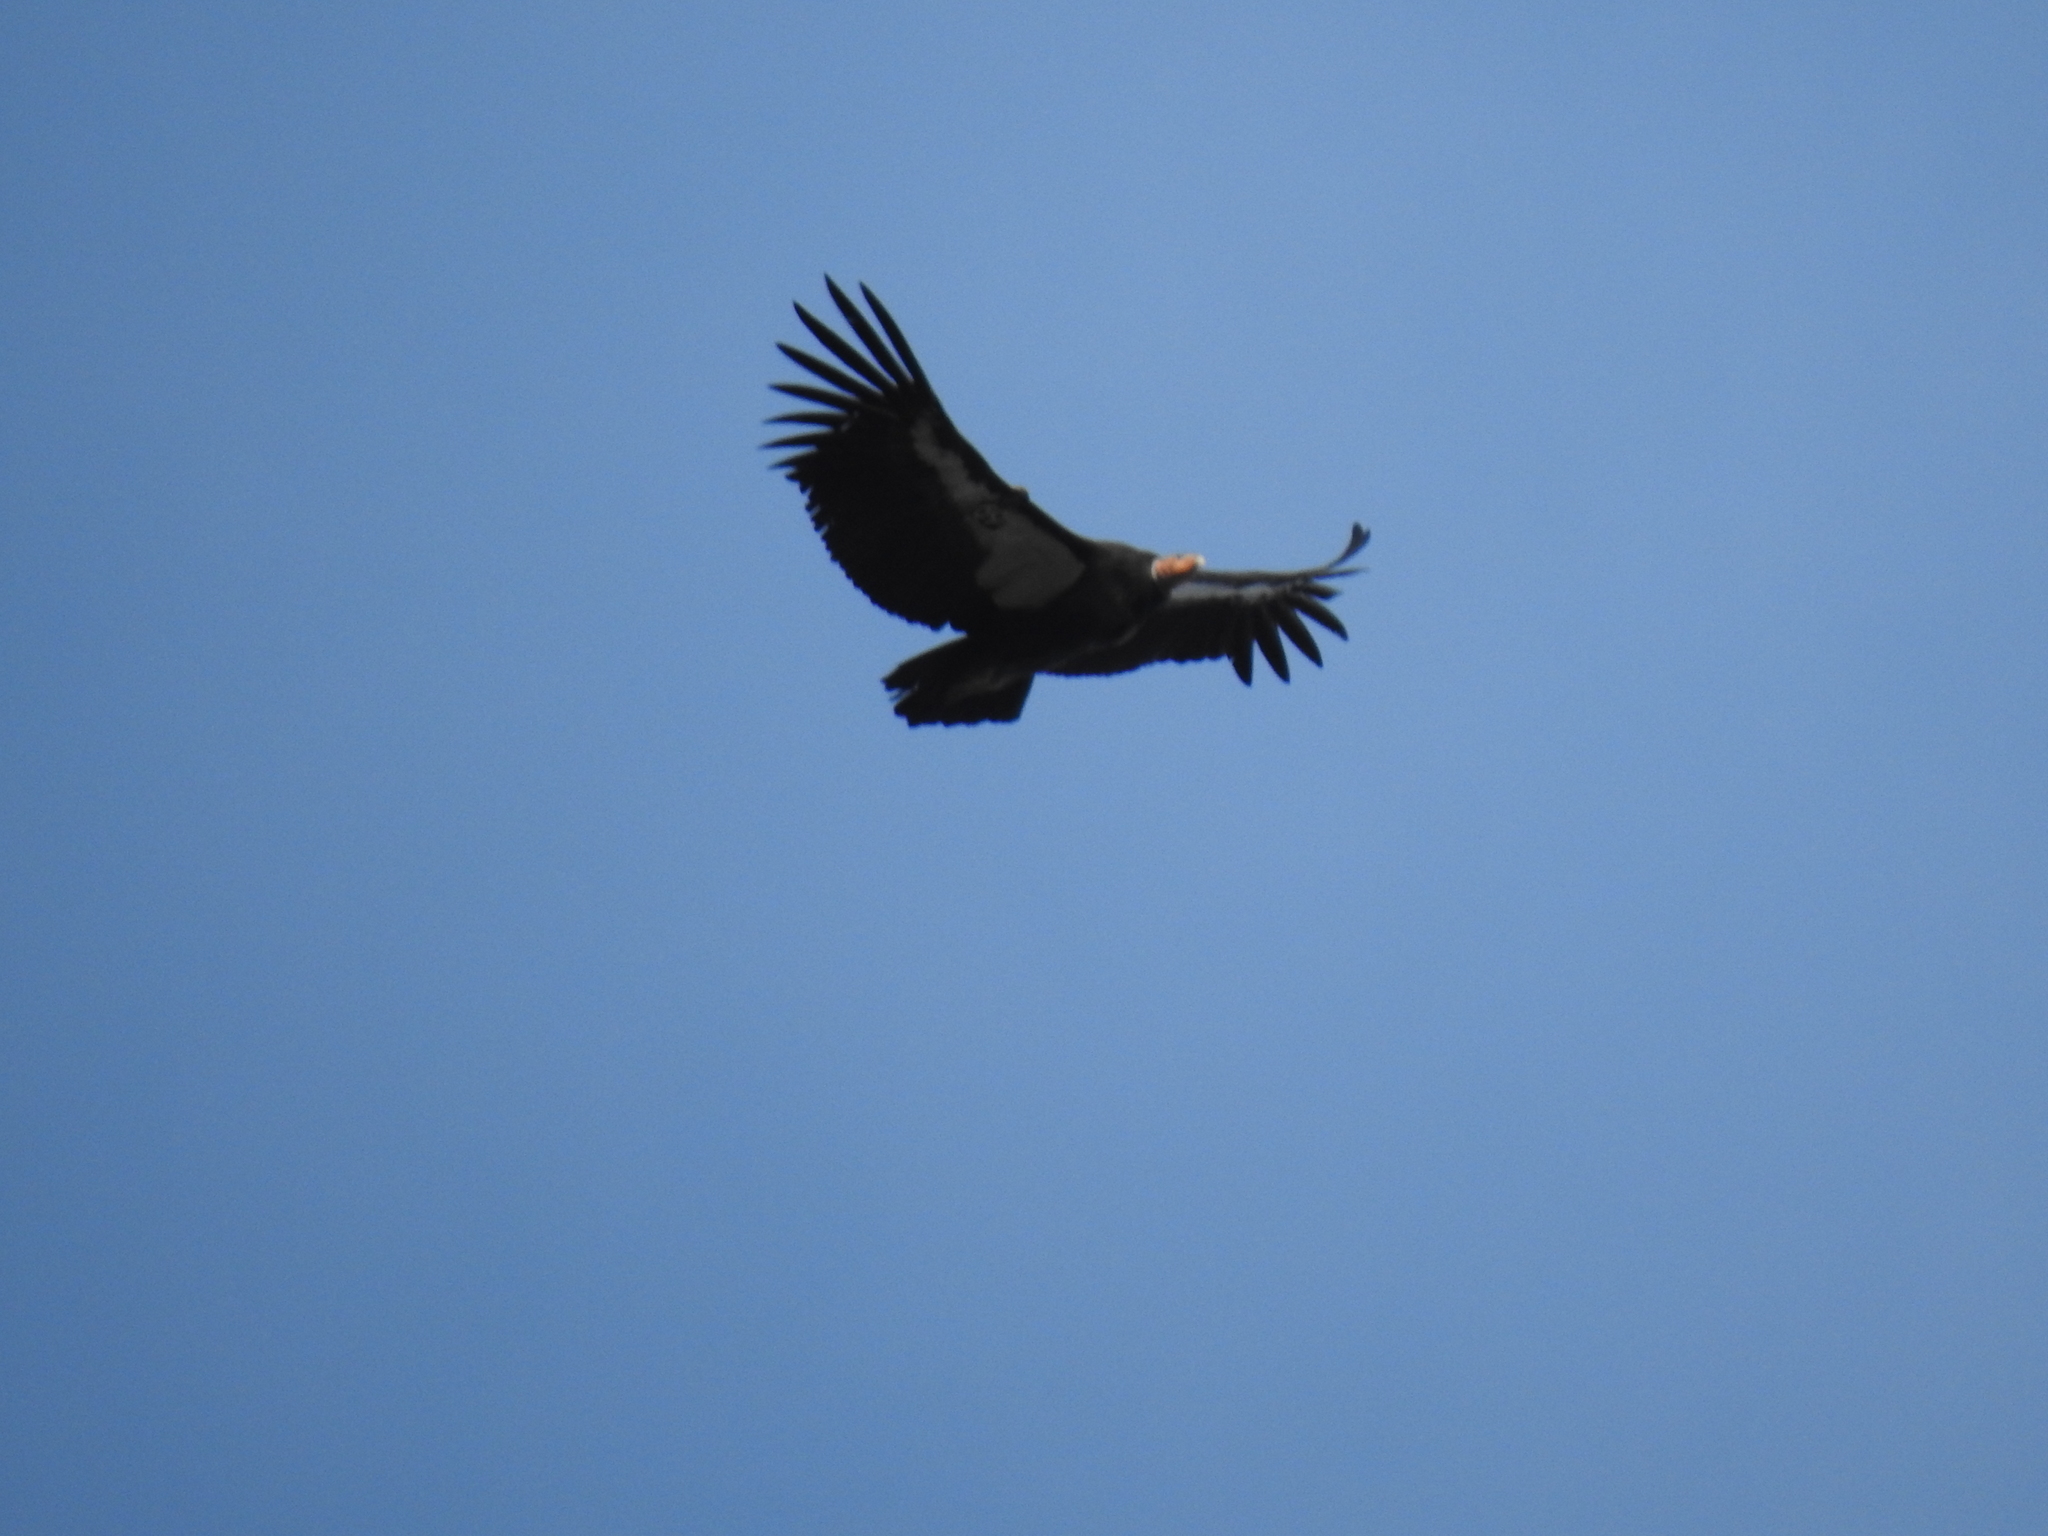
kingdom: Animalia
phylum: Chordata
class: Aves
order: Accipitriformes
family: Cathartidae
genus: Gymnogyps
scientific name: Gymnogyps californianus
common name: California condor
